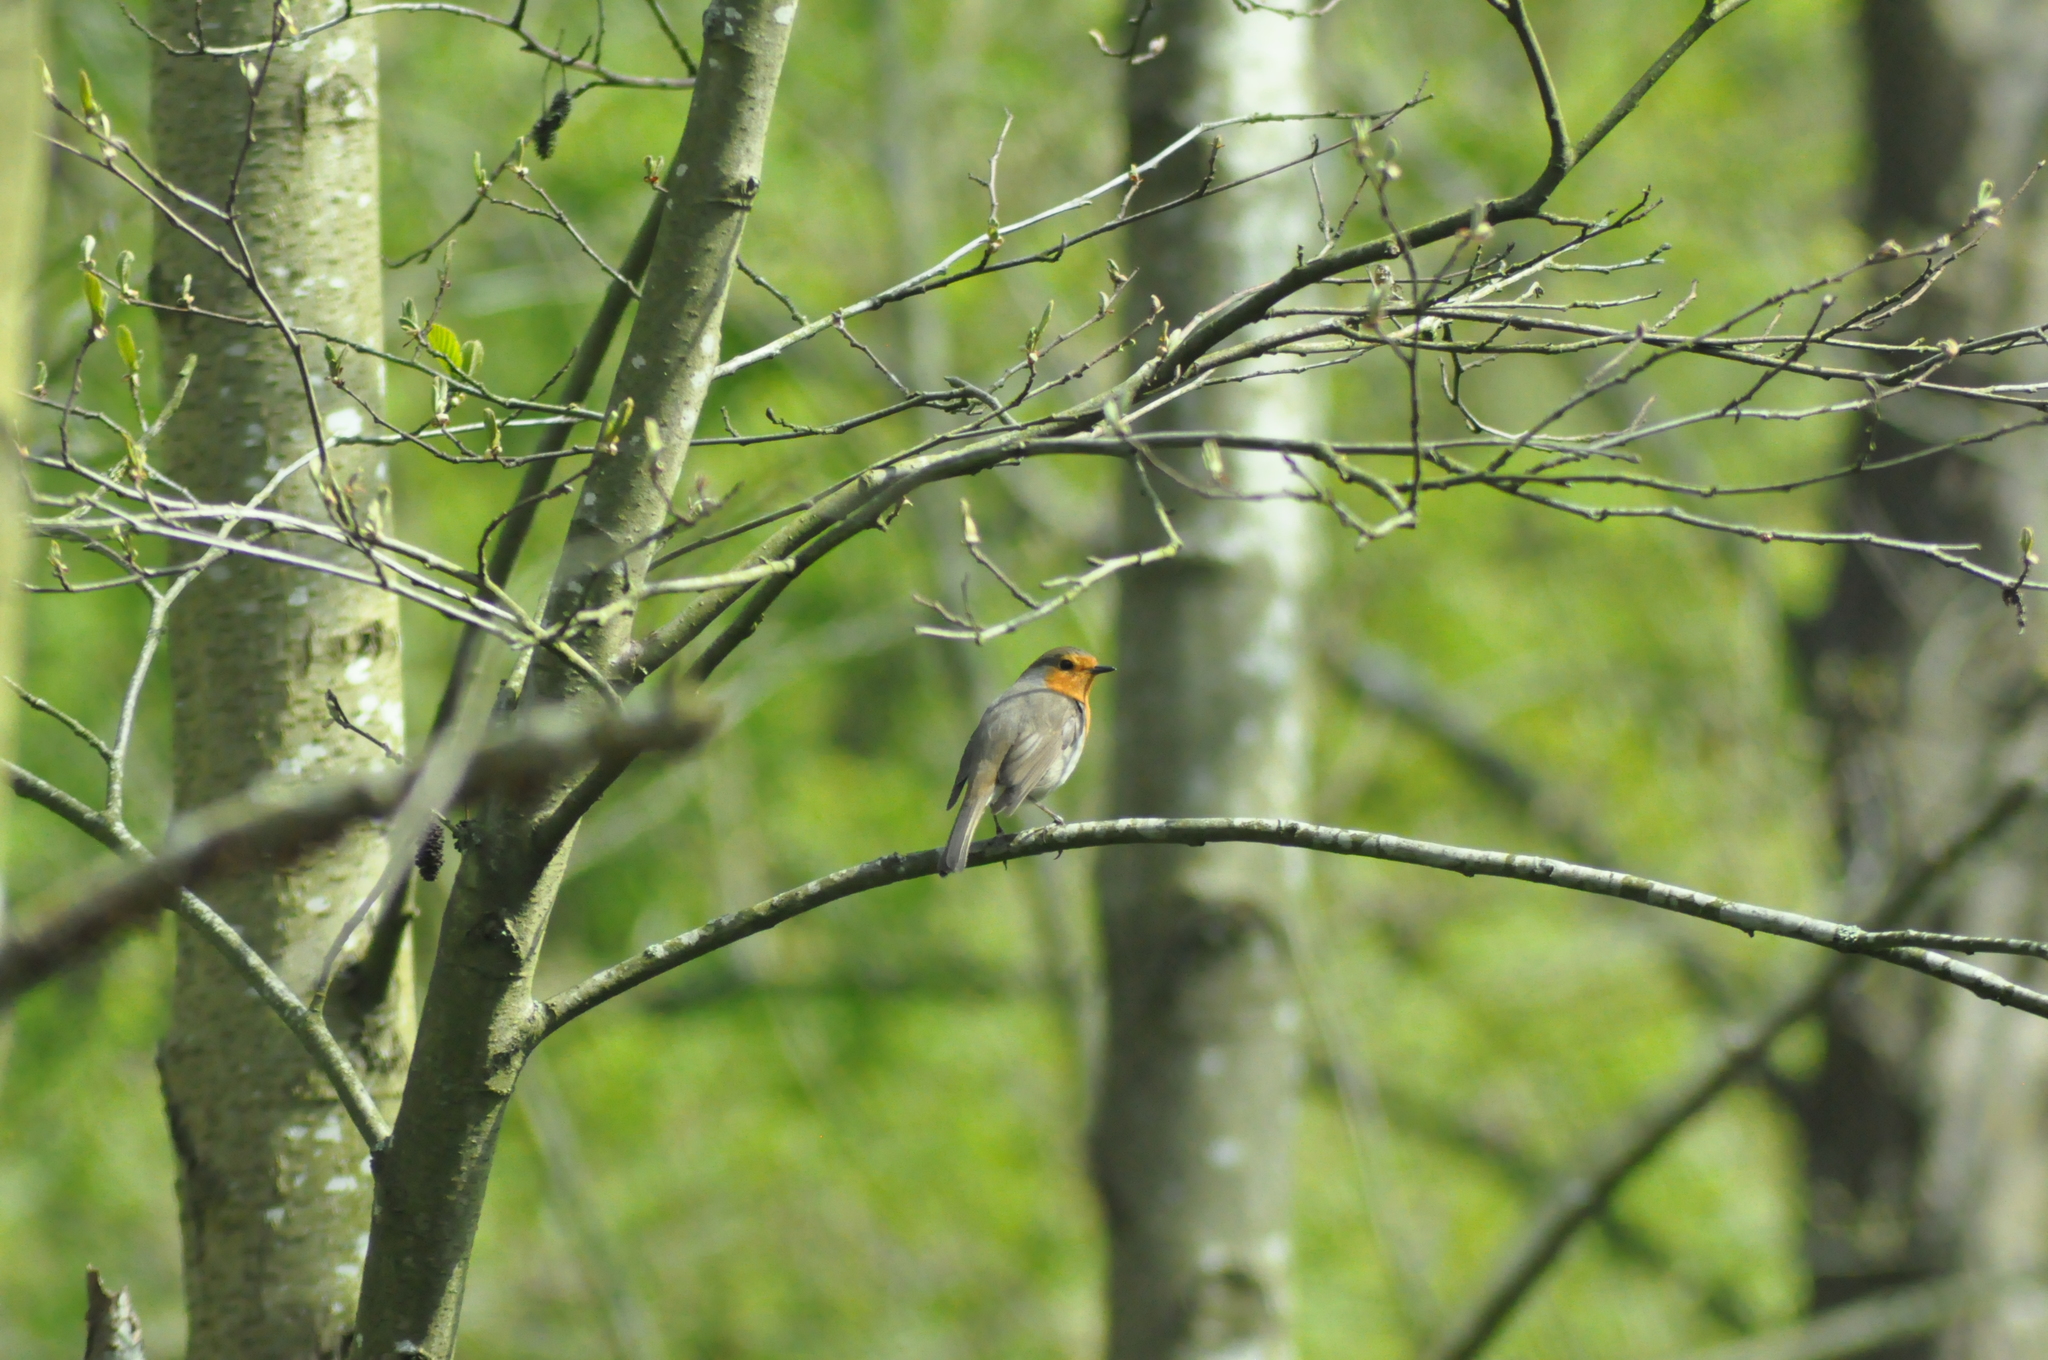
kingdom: Animalia
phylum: Chordata
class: Aves
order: Passeriformes
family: Muscicapidae
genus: Erithacus
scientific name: Erithacus rubecula
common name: European robin
